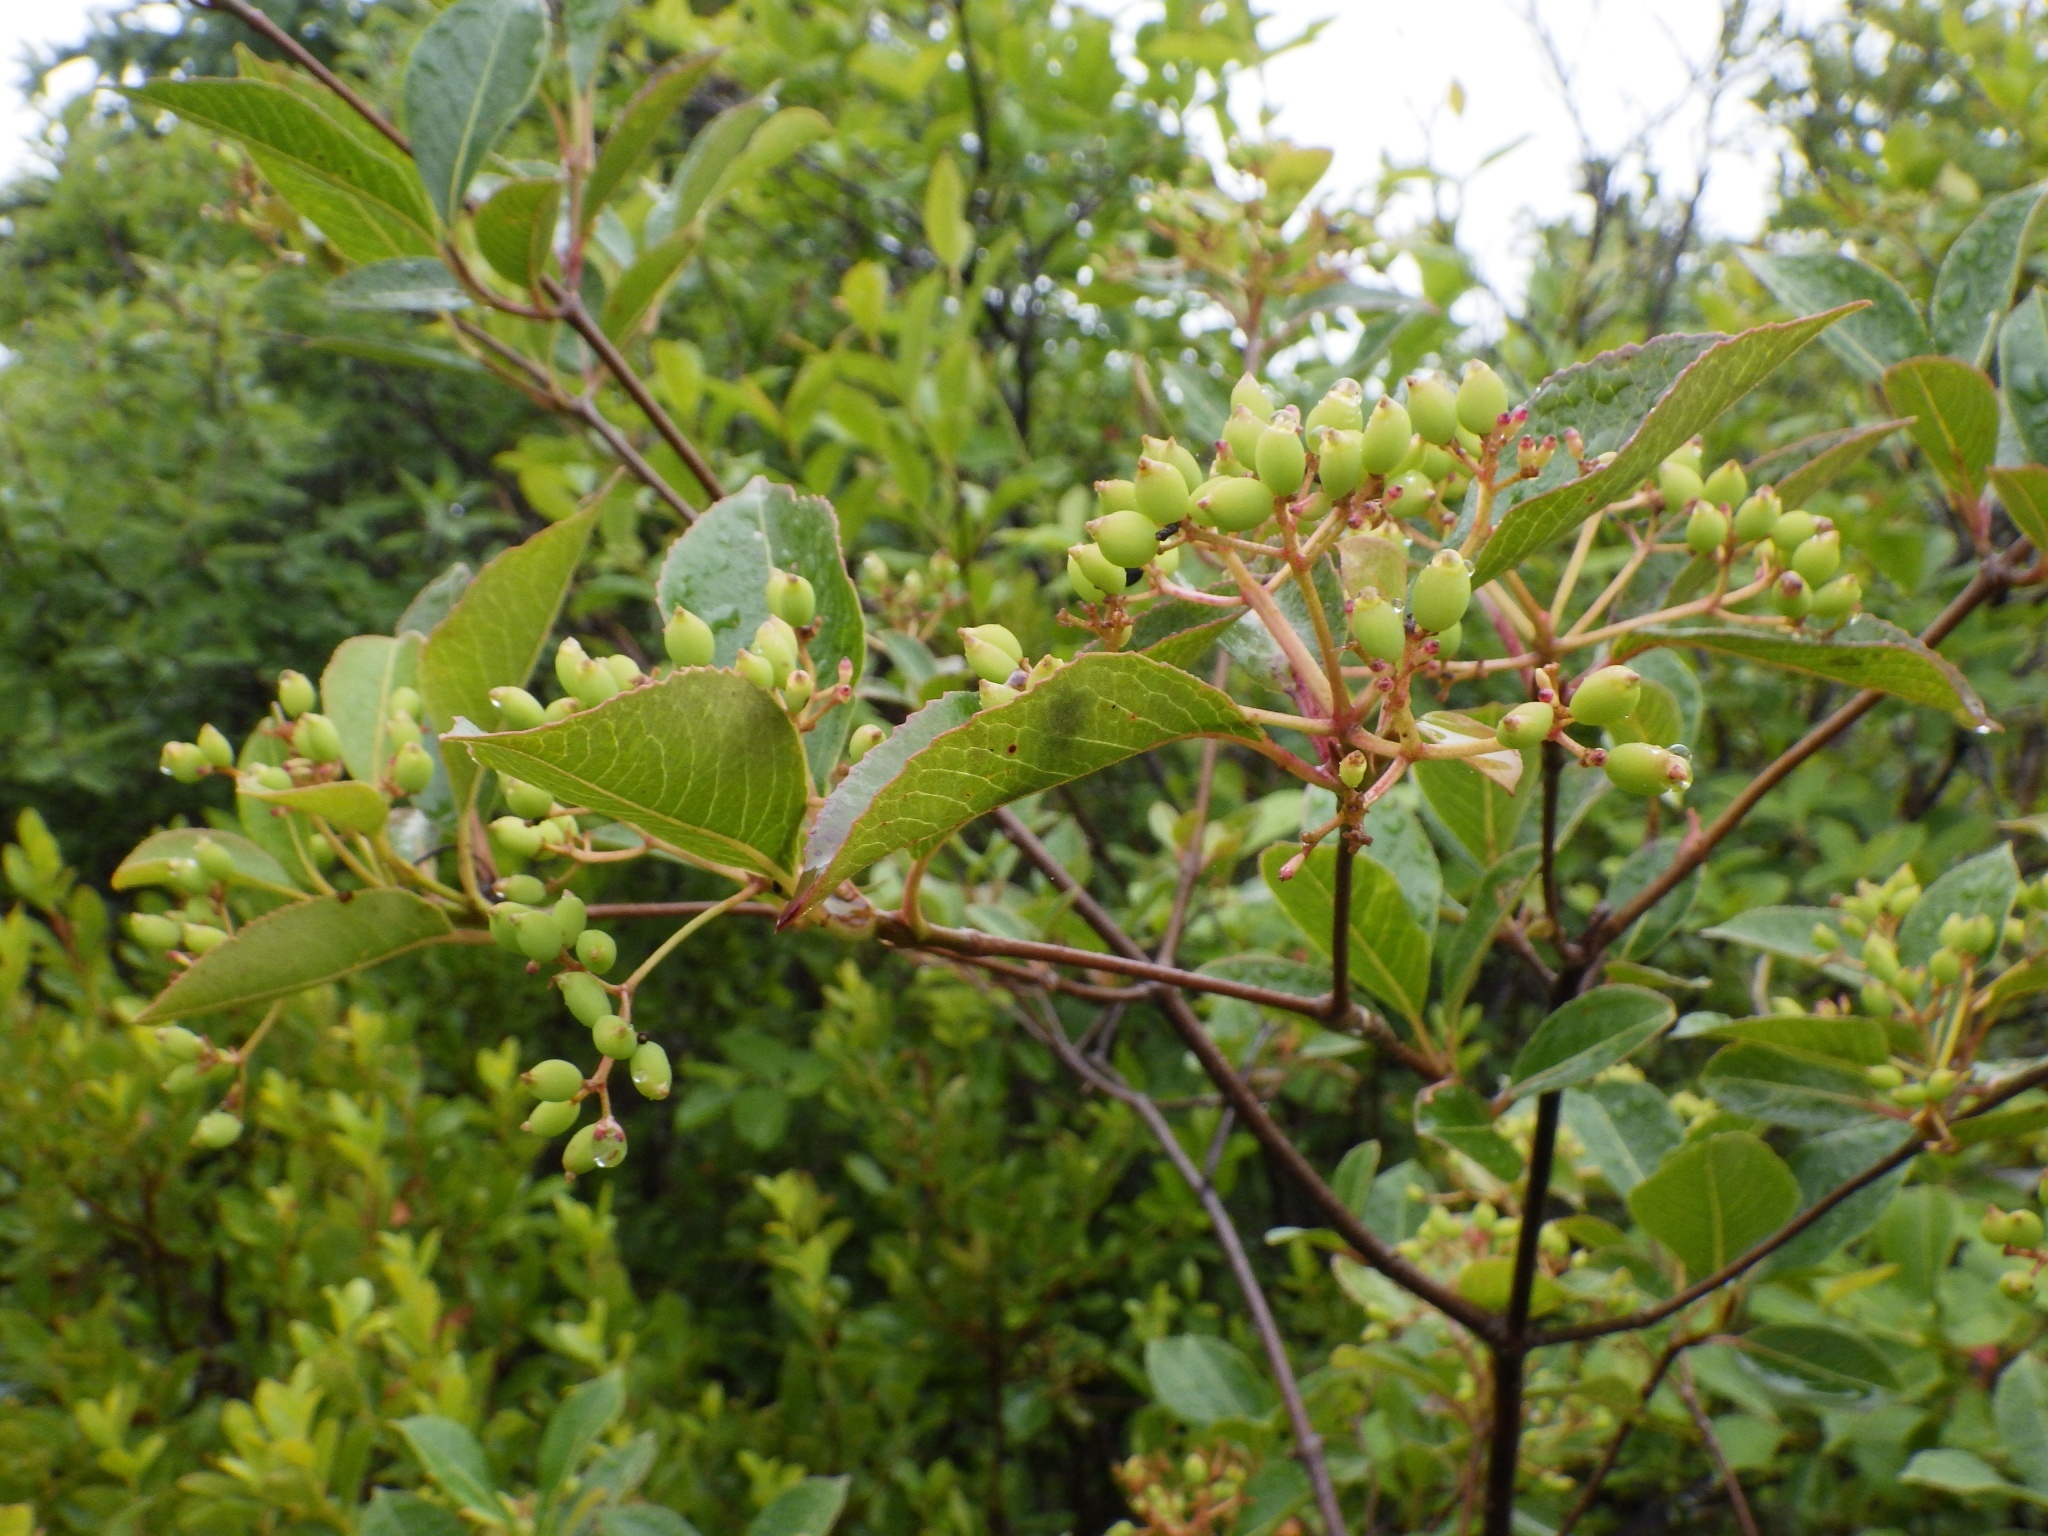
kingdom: Plantae
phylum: Tracheophyta
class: Magnoliopsida
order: Dipsacales
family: Viburnaceae
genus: Viburnum
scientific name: Viburnum cassinoides
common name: Swamp haw
